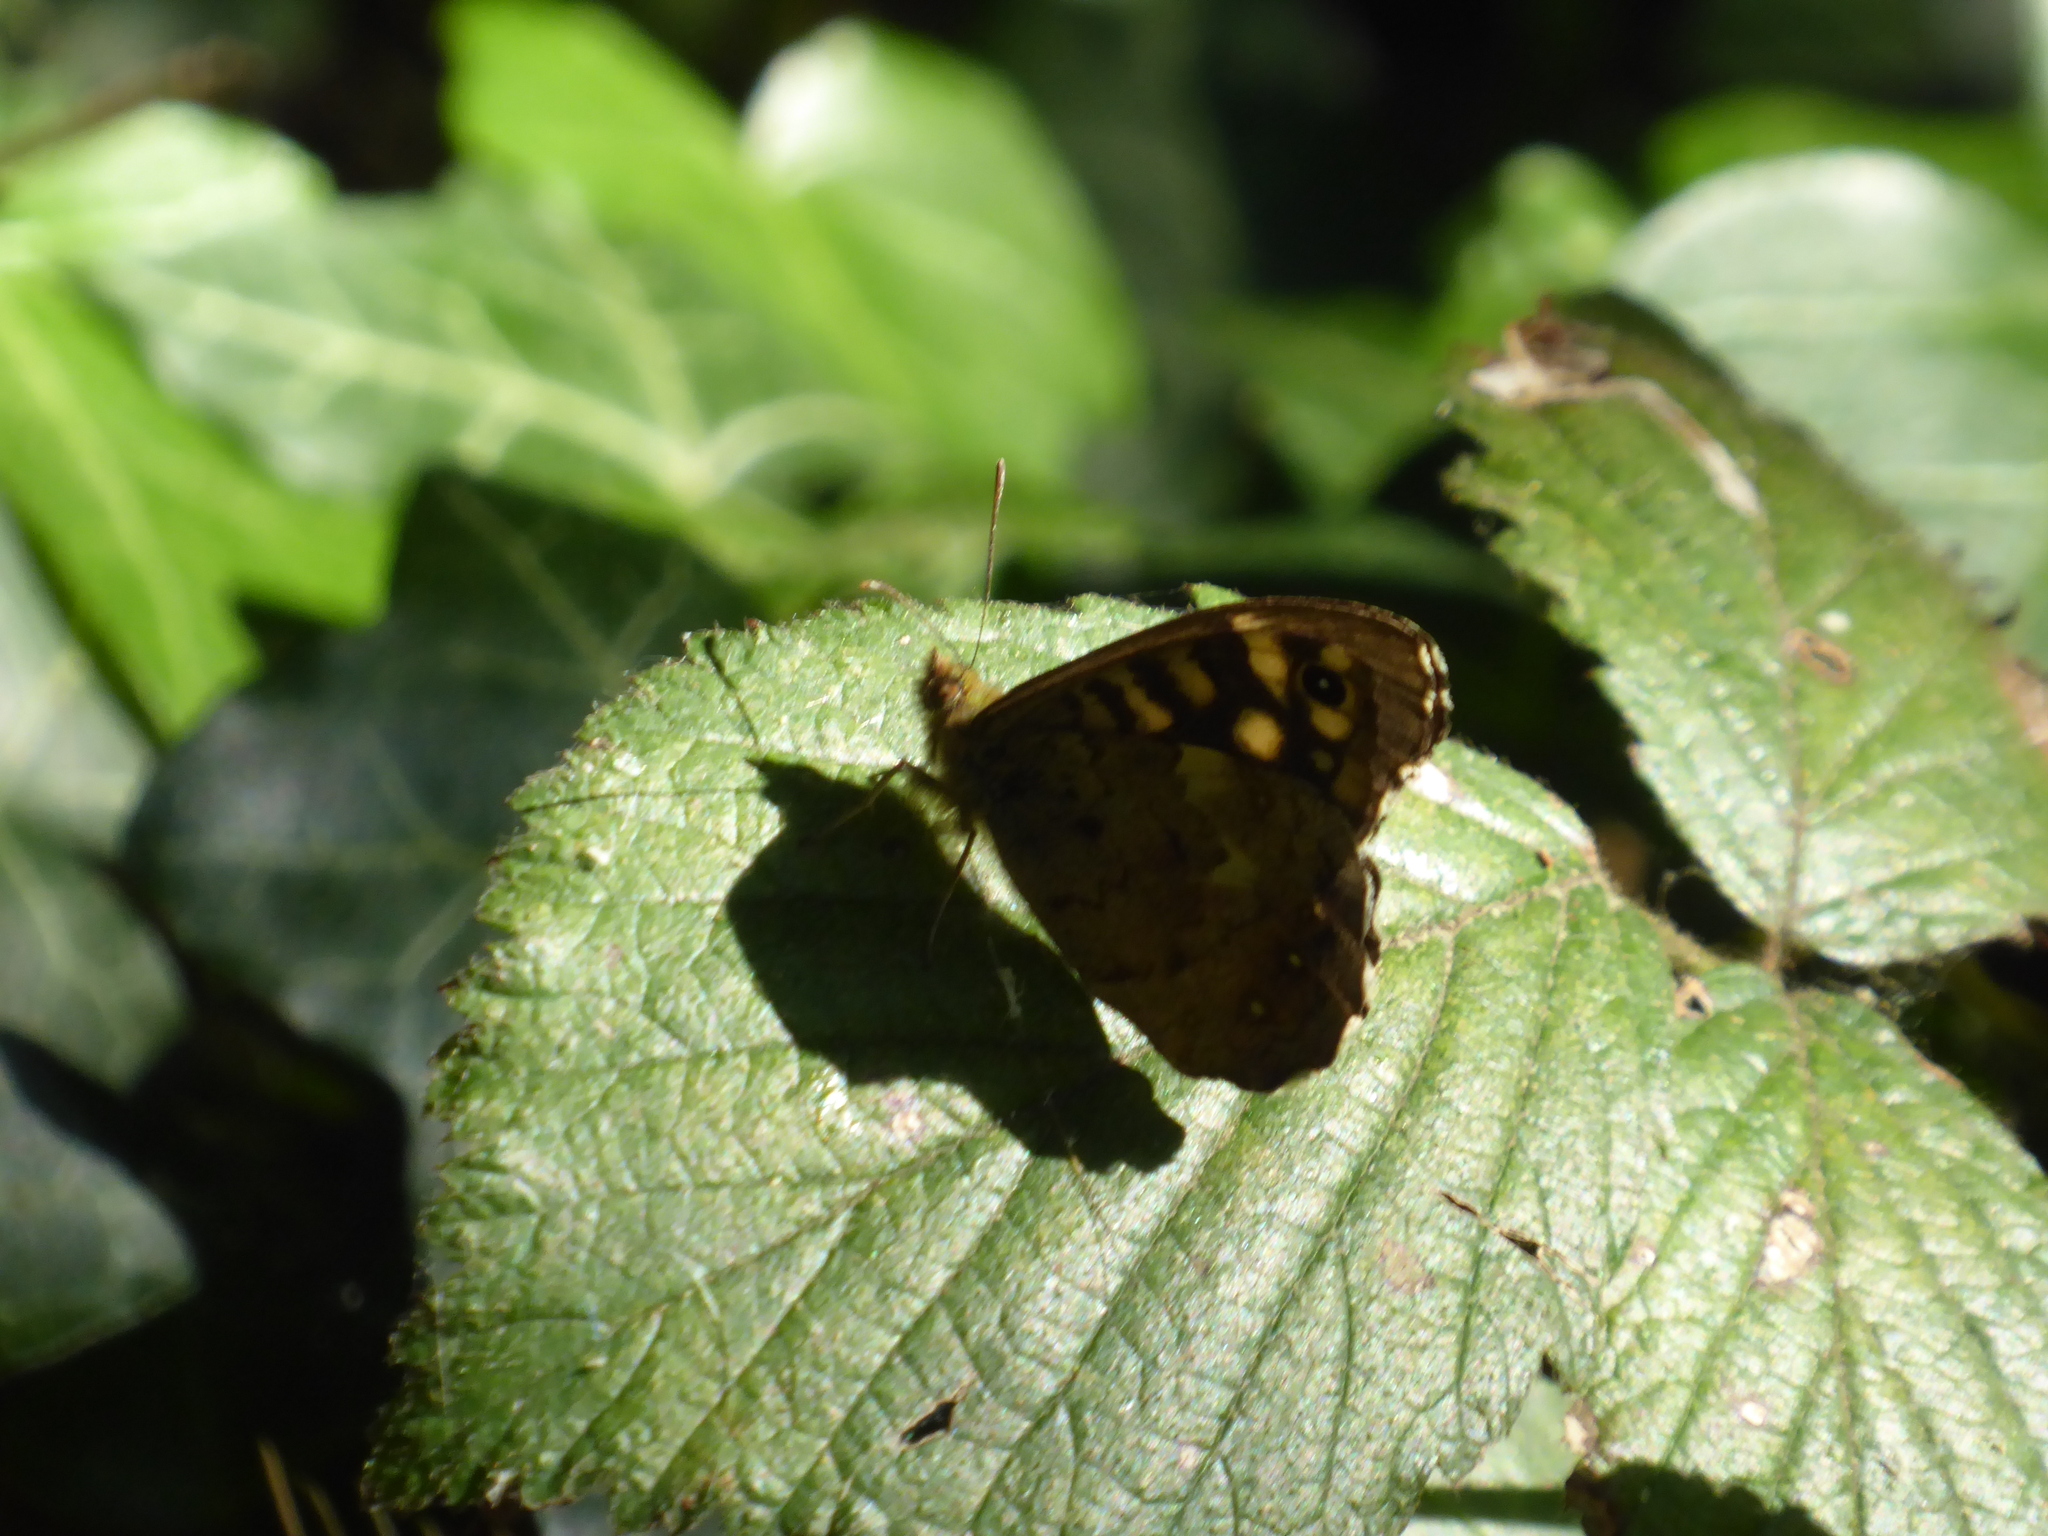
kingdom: Animalia
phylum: Arthropoda
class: Insecta
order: Lepidoptera
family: Nymphalidae
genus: Pararge
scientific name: Pararge aegeria
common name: Speckled wood
